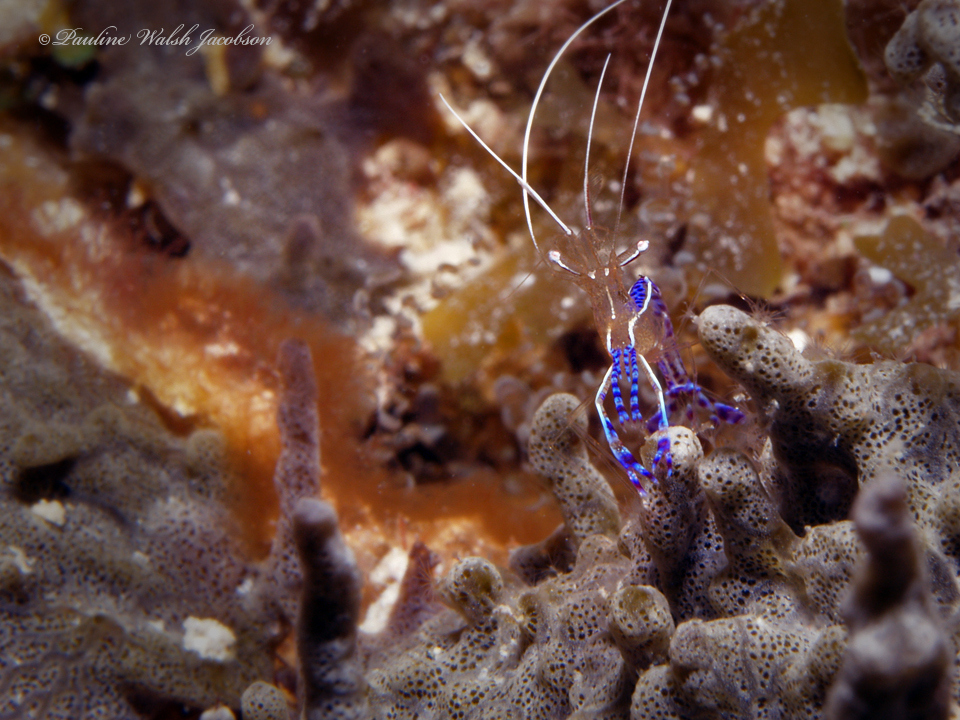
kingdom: Animalia
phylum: Arthropoda
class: Malacostraca
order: Decapoda
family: Palaemonidae
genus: Ancylomenes
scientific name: Ancylomenes pedersoni
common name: Pederson's cleaning shrimp
